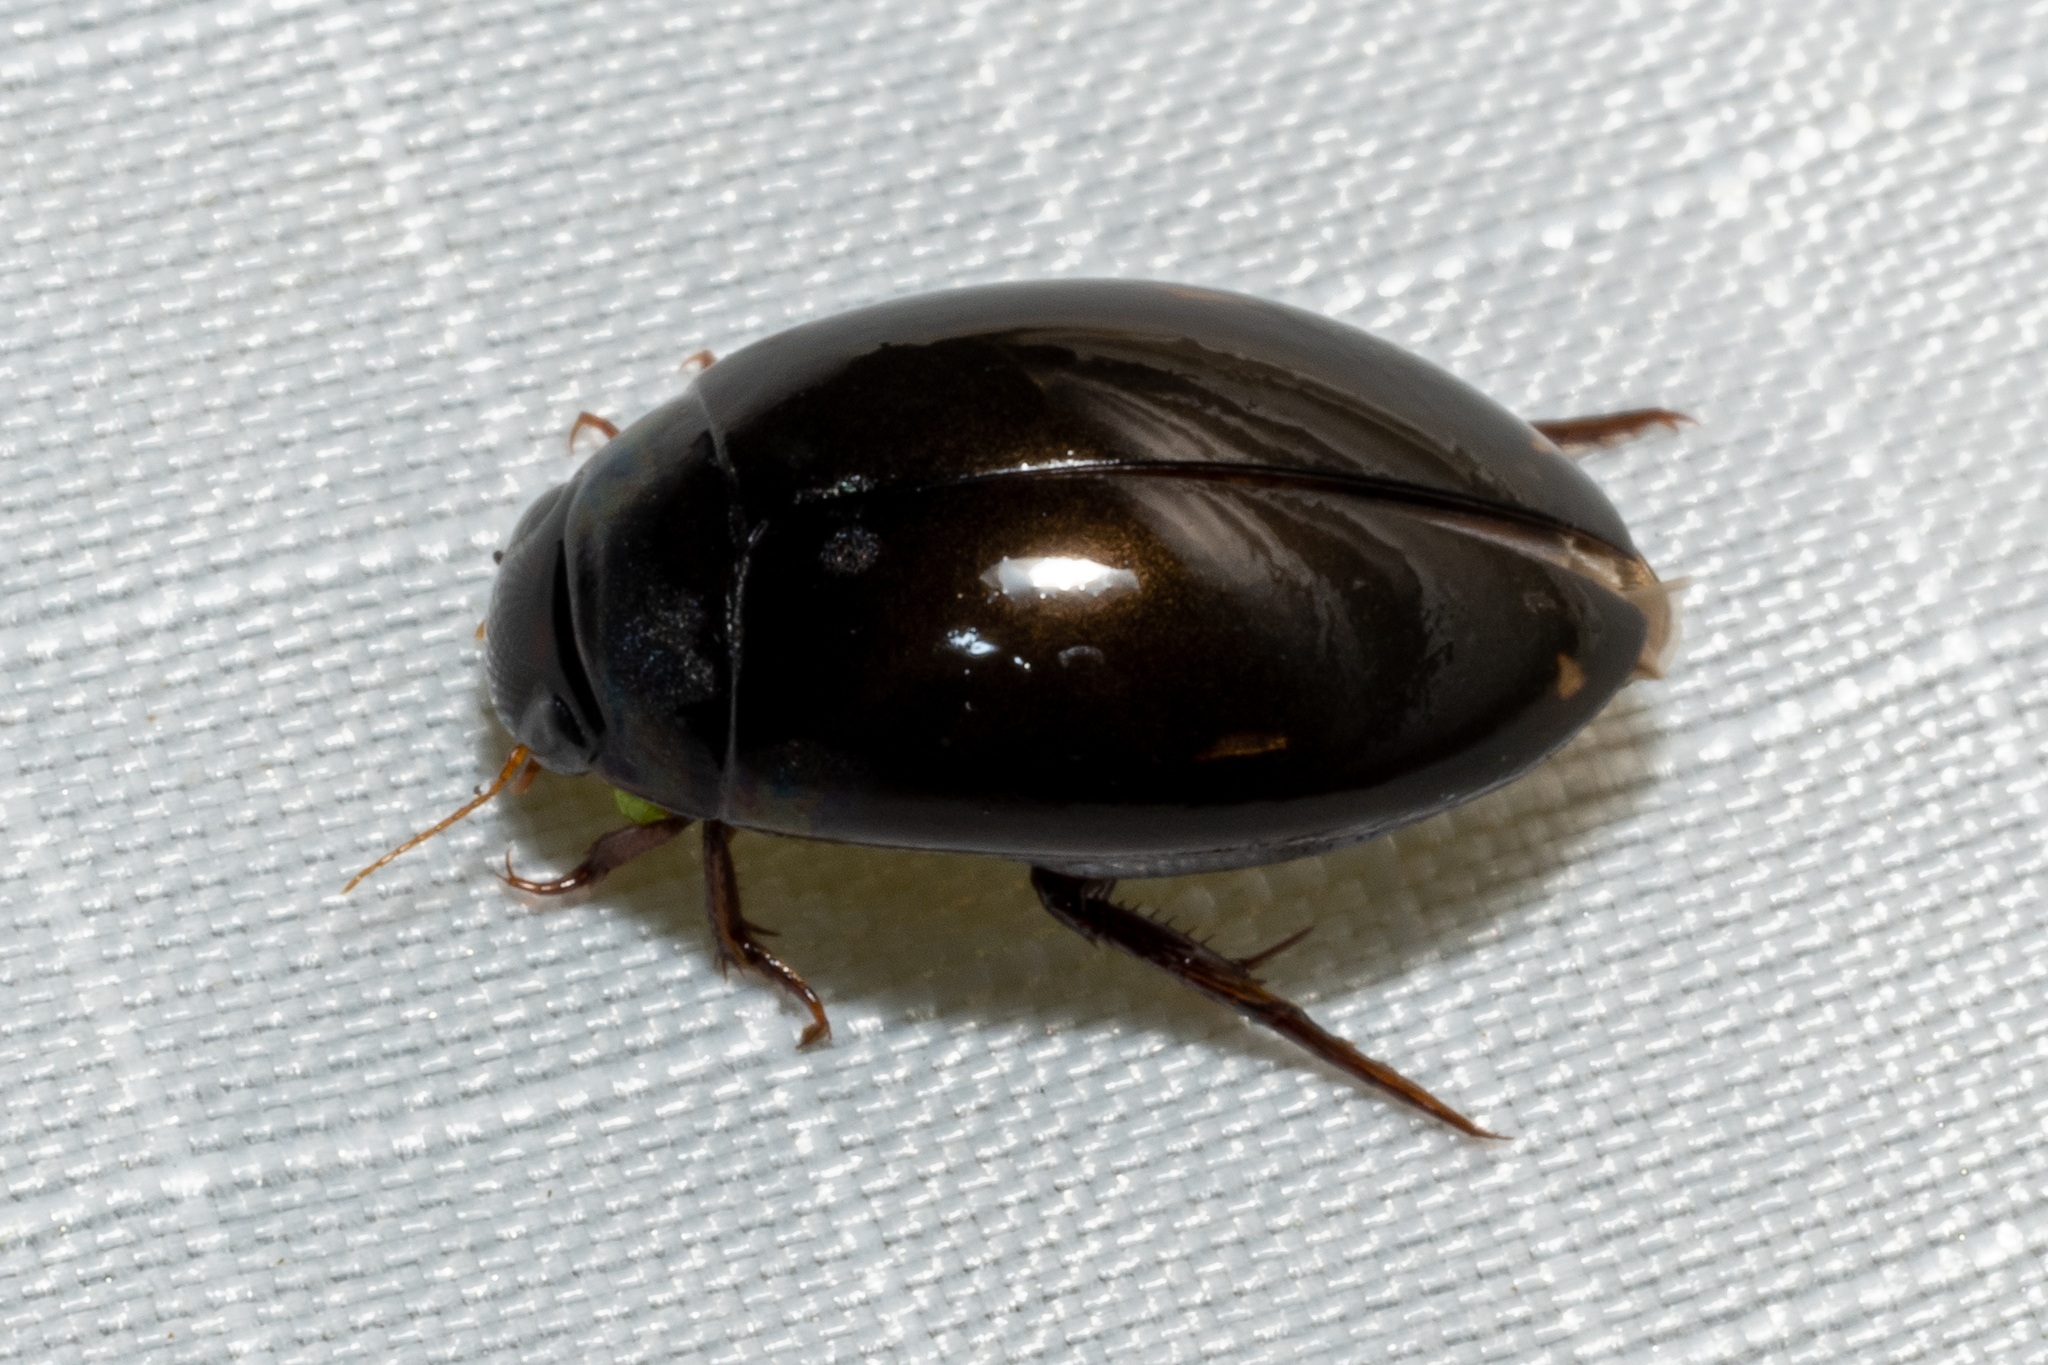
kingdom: Animalia
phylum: Arthropoda
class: Insecta
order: Coleoptera
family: Dytiscidae
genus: Ilybius
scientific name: Ilybius
